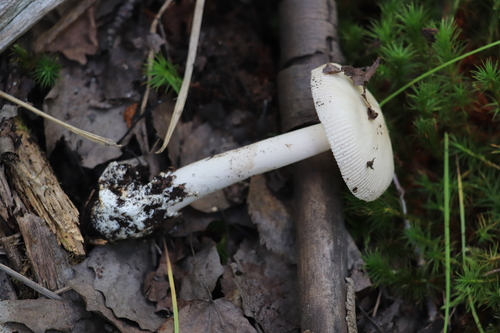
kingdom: Fungi
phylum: Basidiomycota
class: Agaricomycetes
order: Agaricales
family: Amanitaceae
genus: Amanita
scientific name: Amanita vaginata
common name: Grisette
